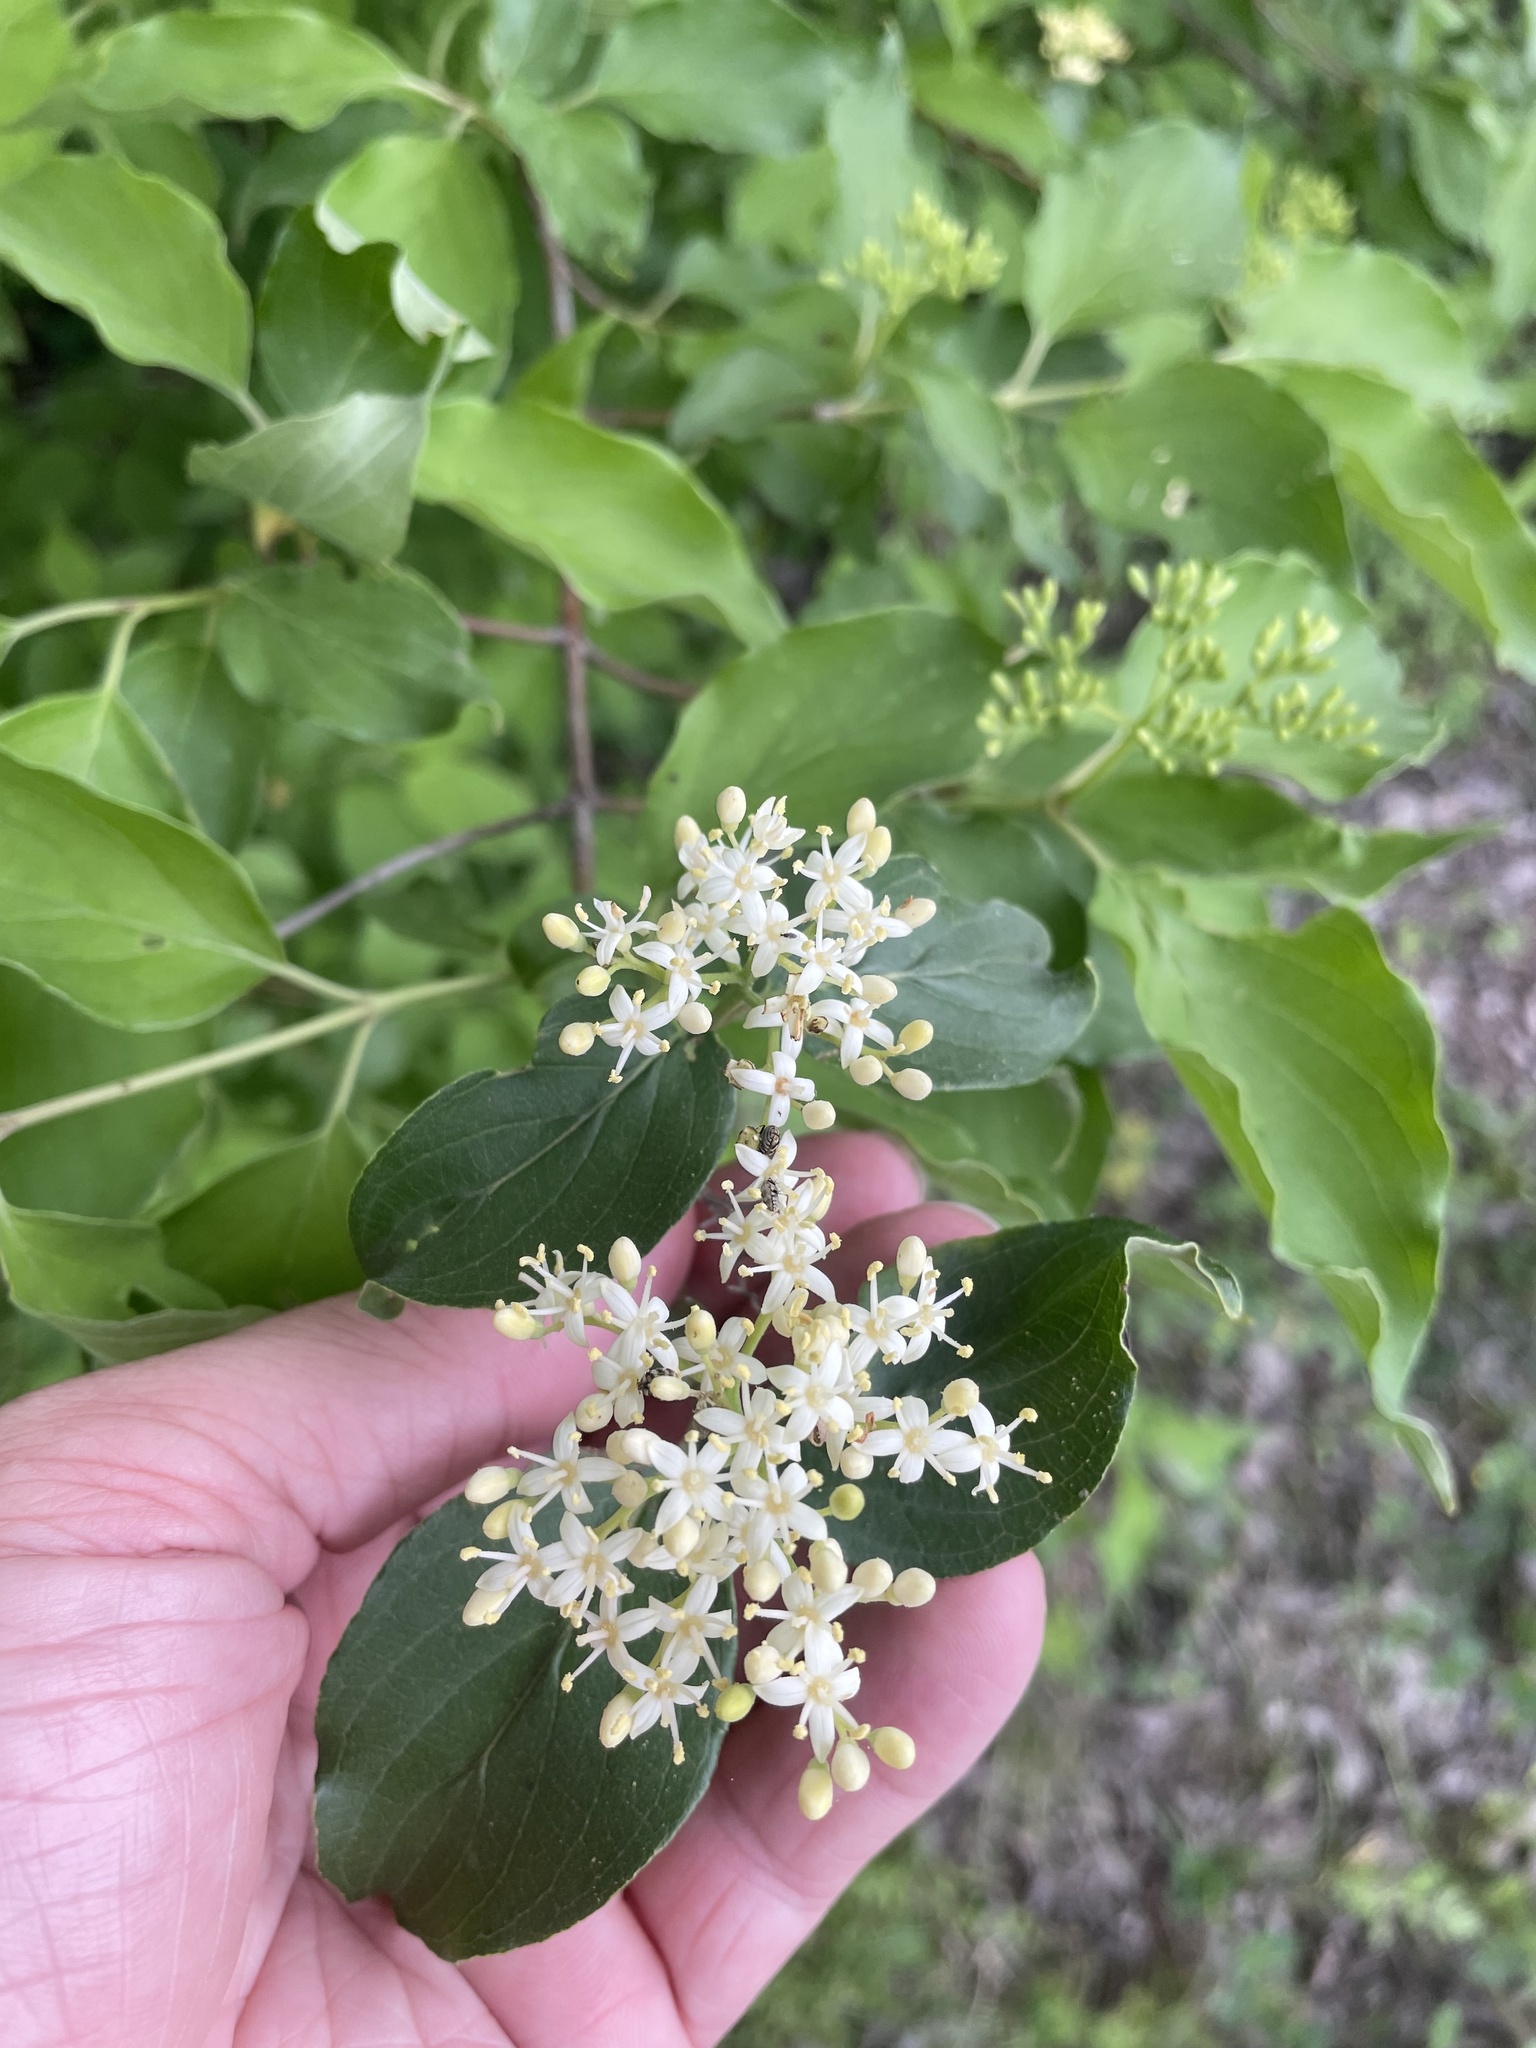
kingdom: Plantae
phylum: Tracheophyta
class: Magnoliopsida
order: Cornales
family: Cornaceae
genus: Cornus
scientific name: Cornus drummondii
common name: Rough-leaf dogwood
